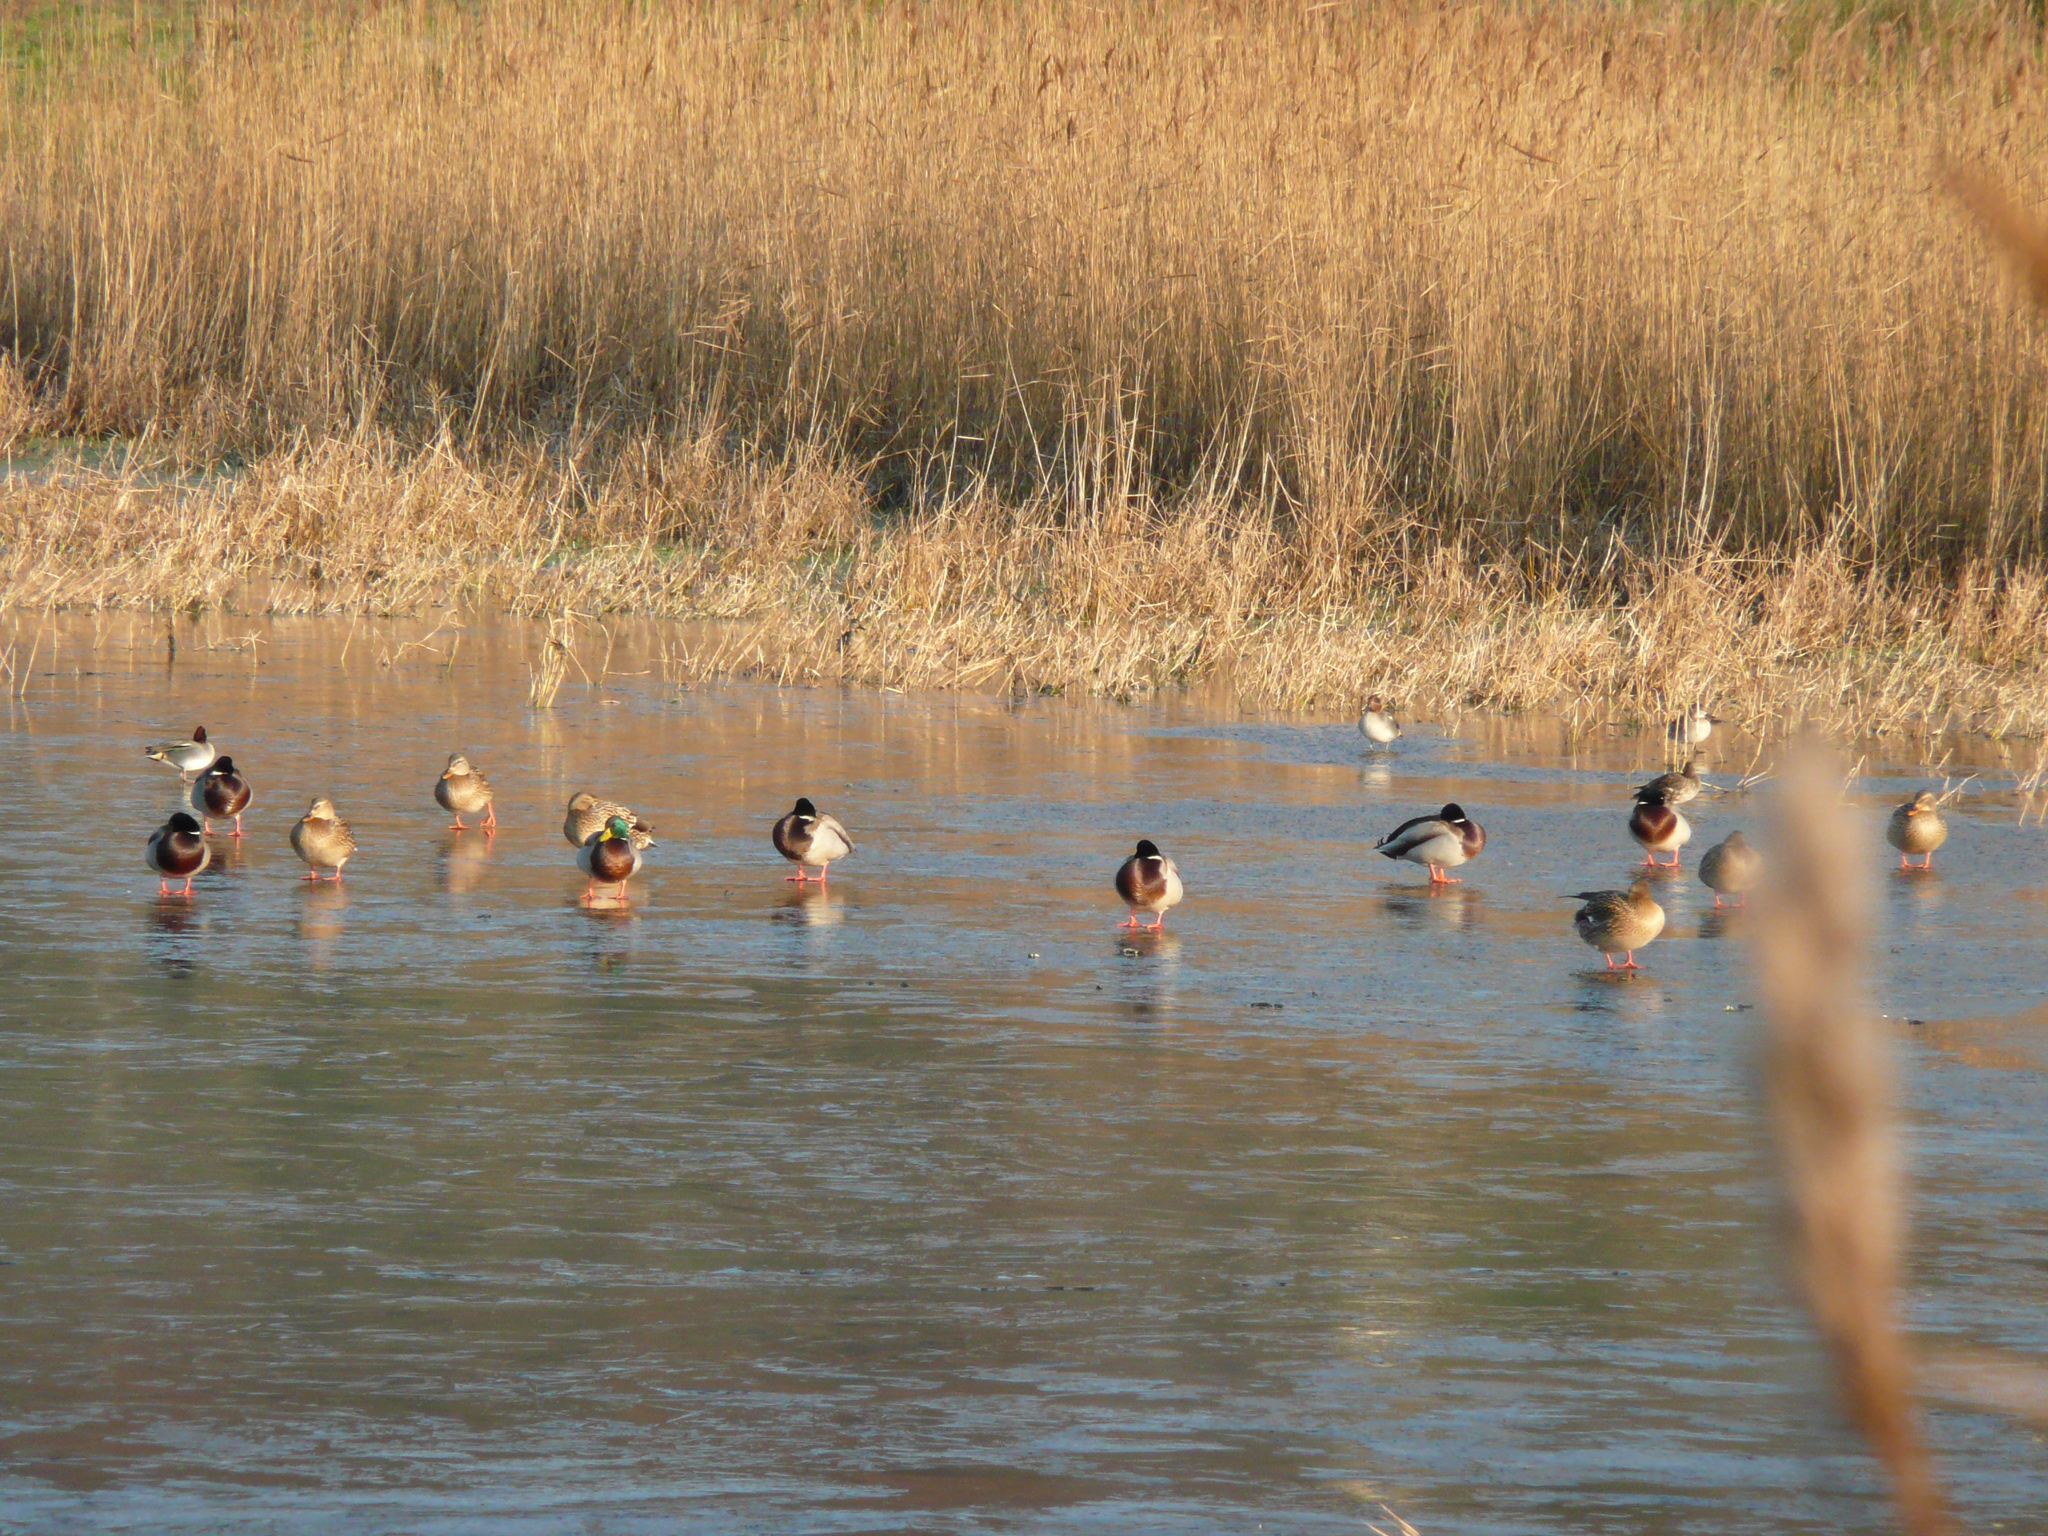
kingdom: Animalia
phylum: Chordata
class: Aves
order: Anseriformes
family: Anatidae
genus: Anas
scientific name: Anas platyrhynchos
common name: Mallard
